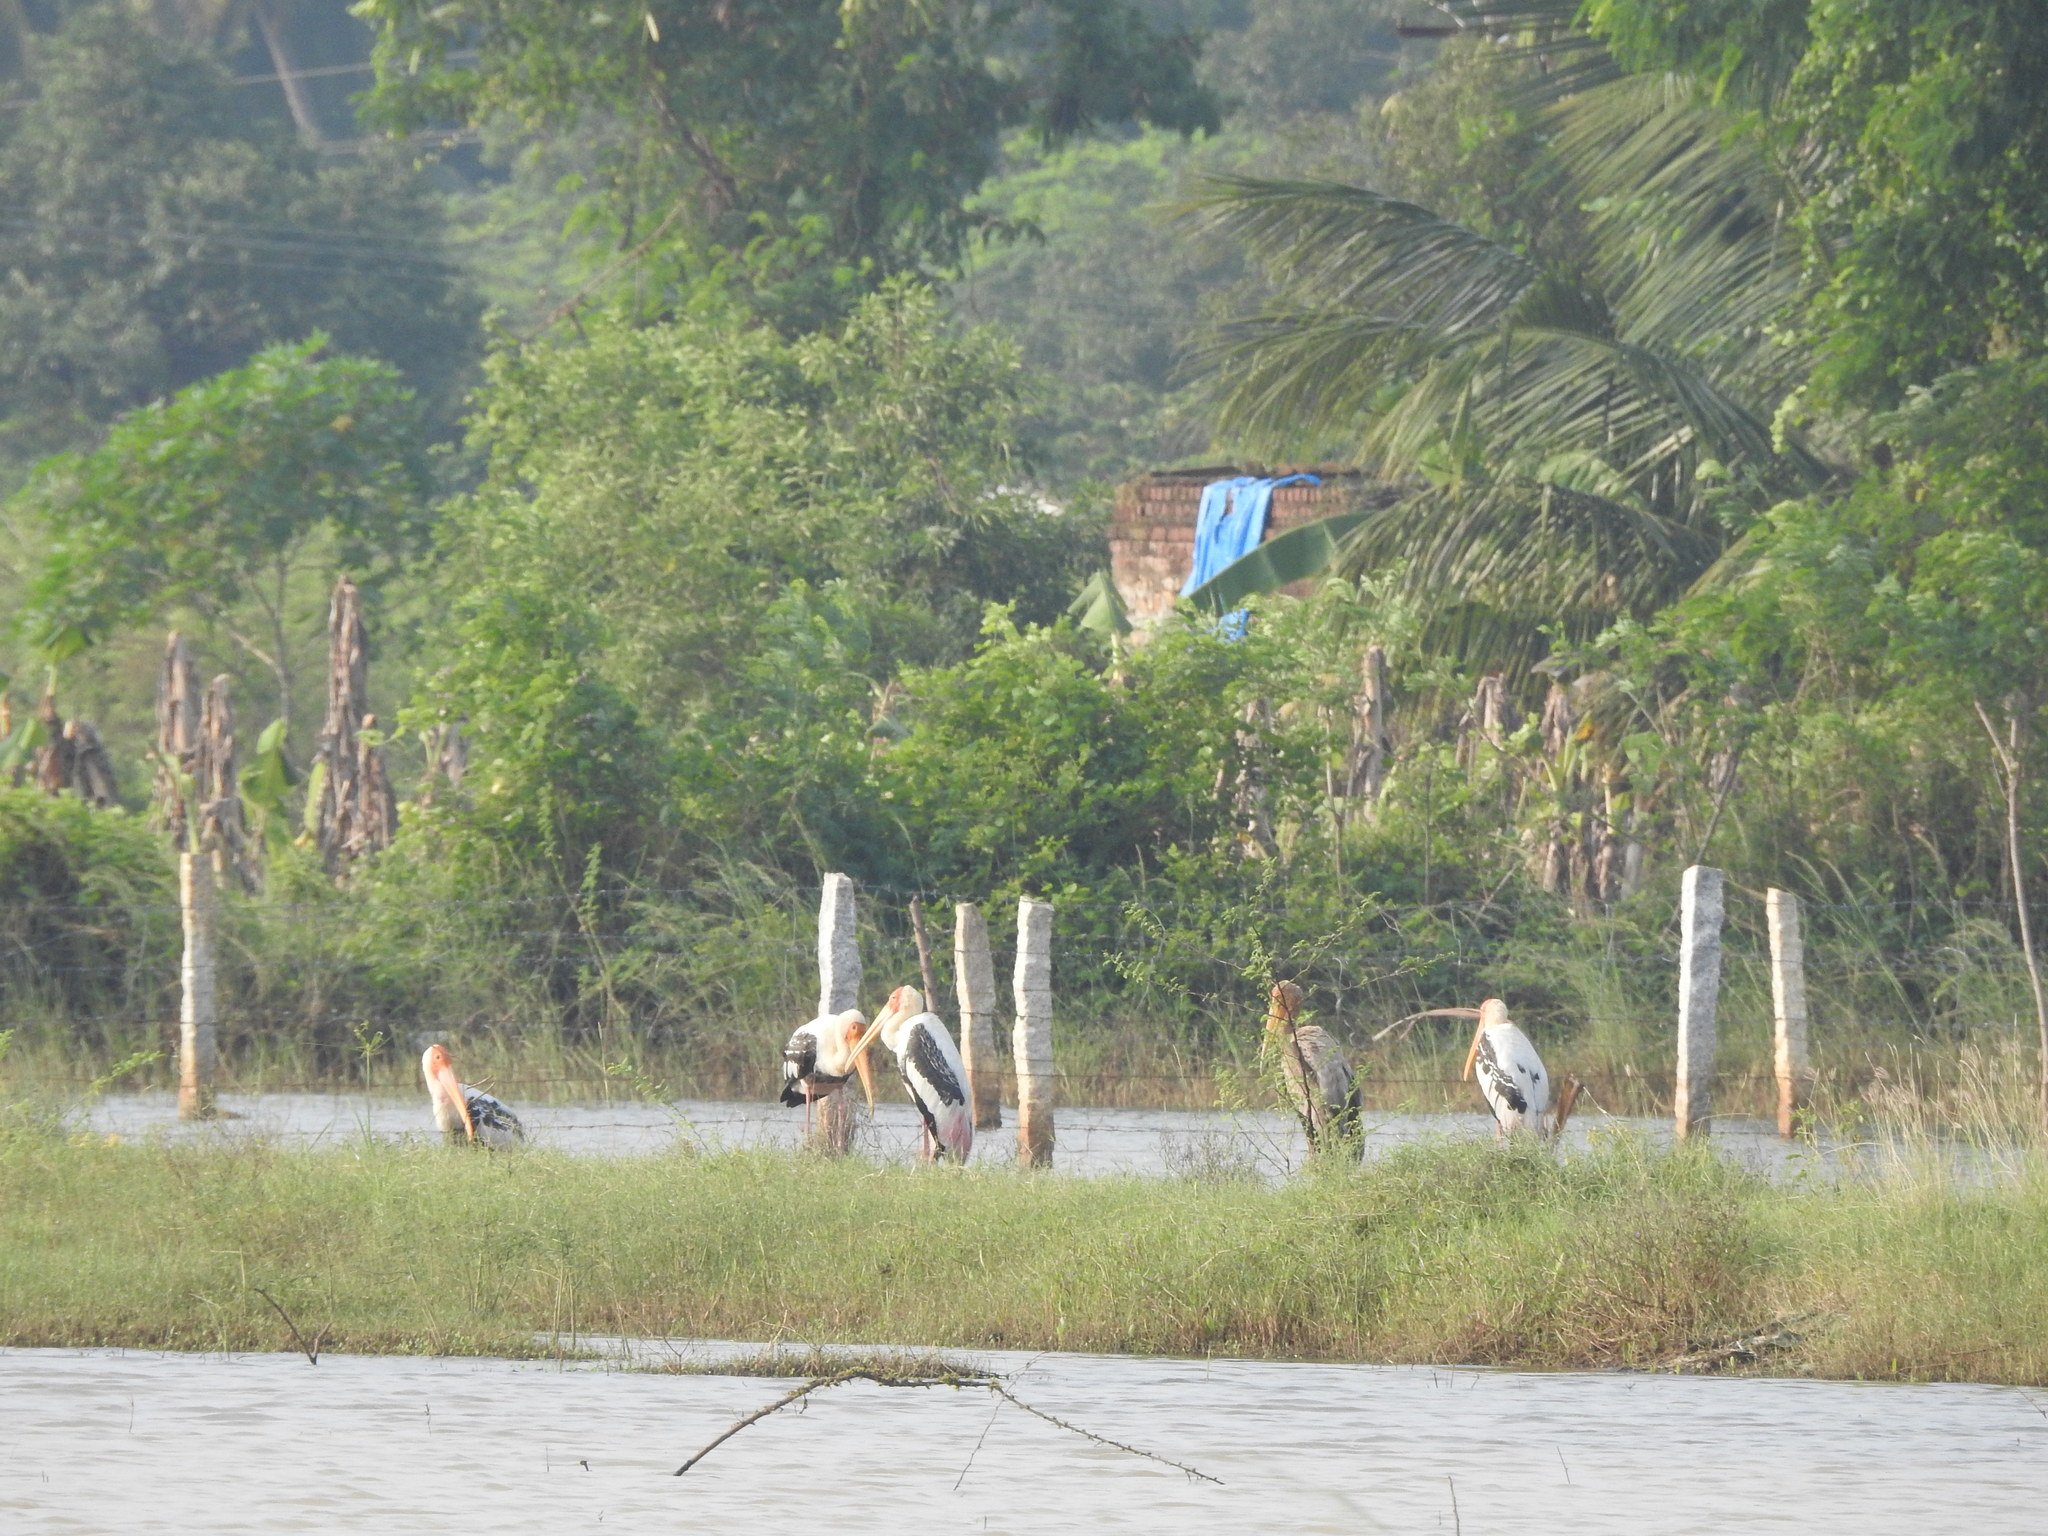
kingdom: Animalia
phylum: Chordata
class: Aves
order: Ciconiiformes
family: Ciconiidae
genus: Mycteria
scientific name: Mycteria leucocephala
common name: Painted stork
